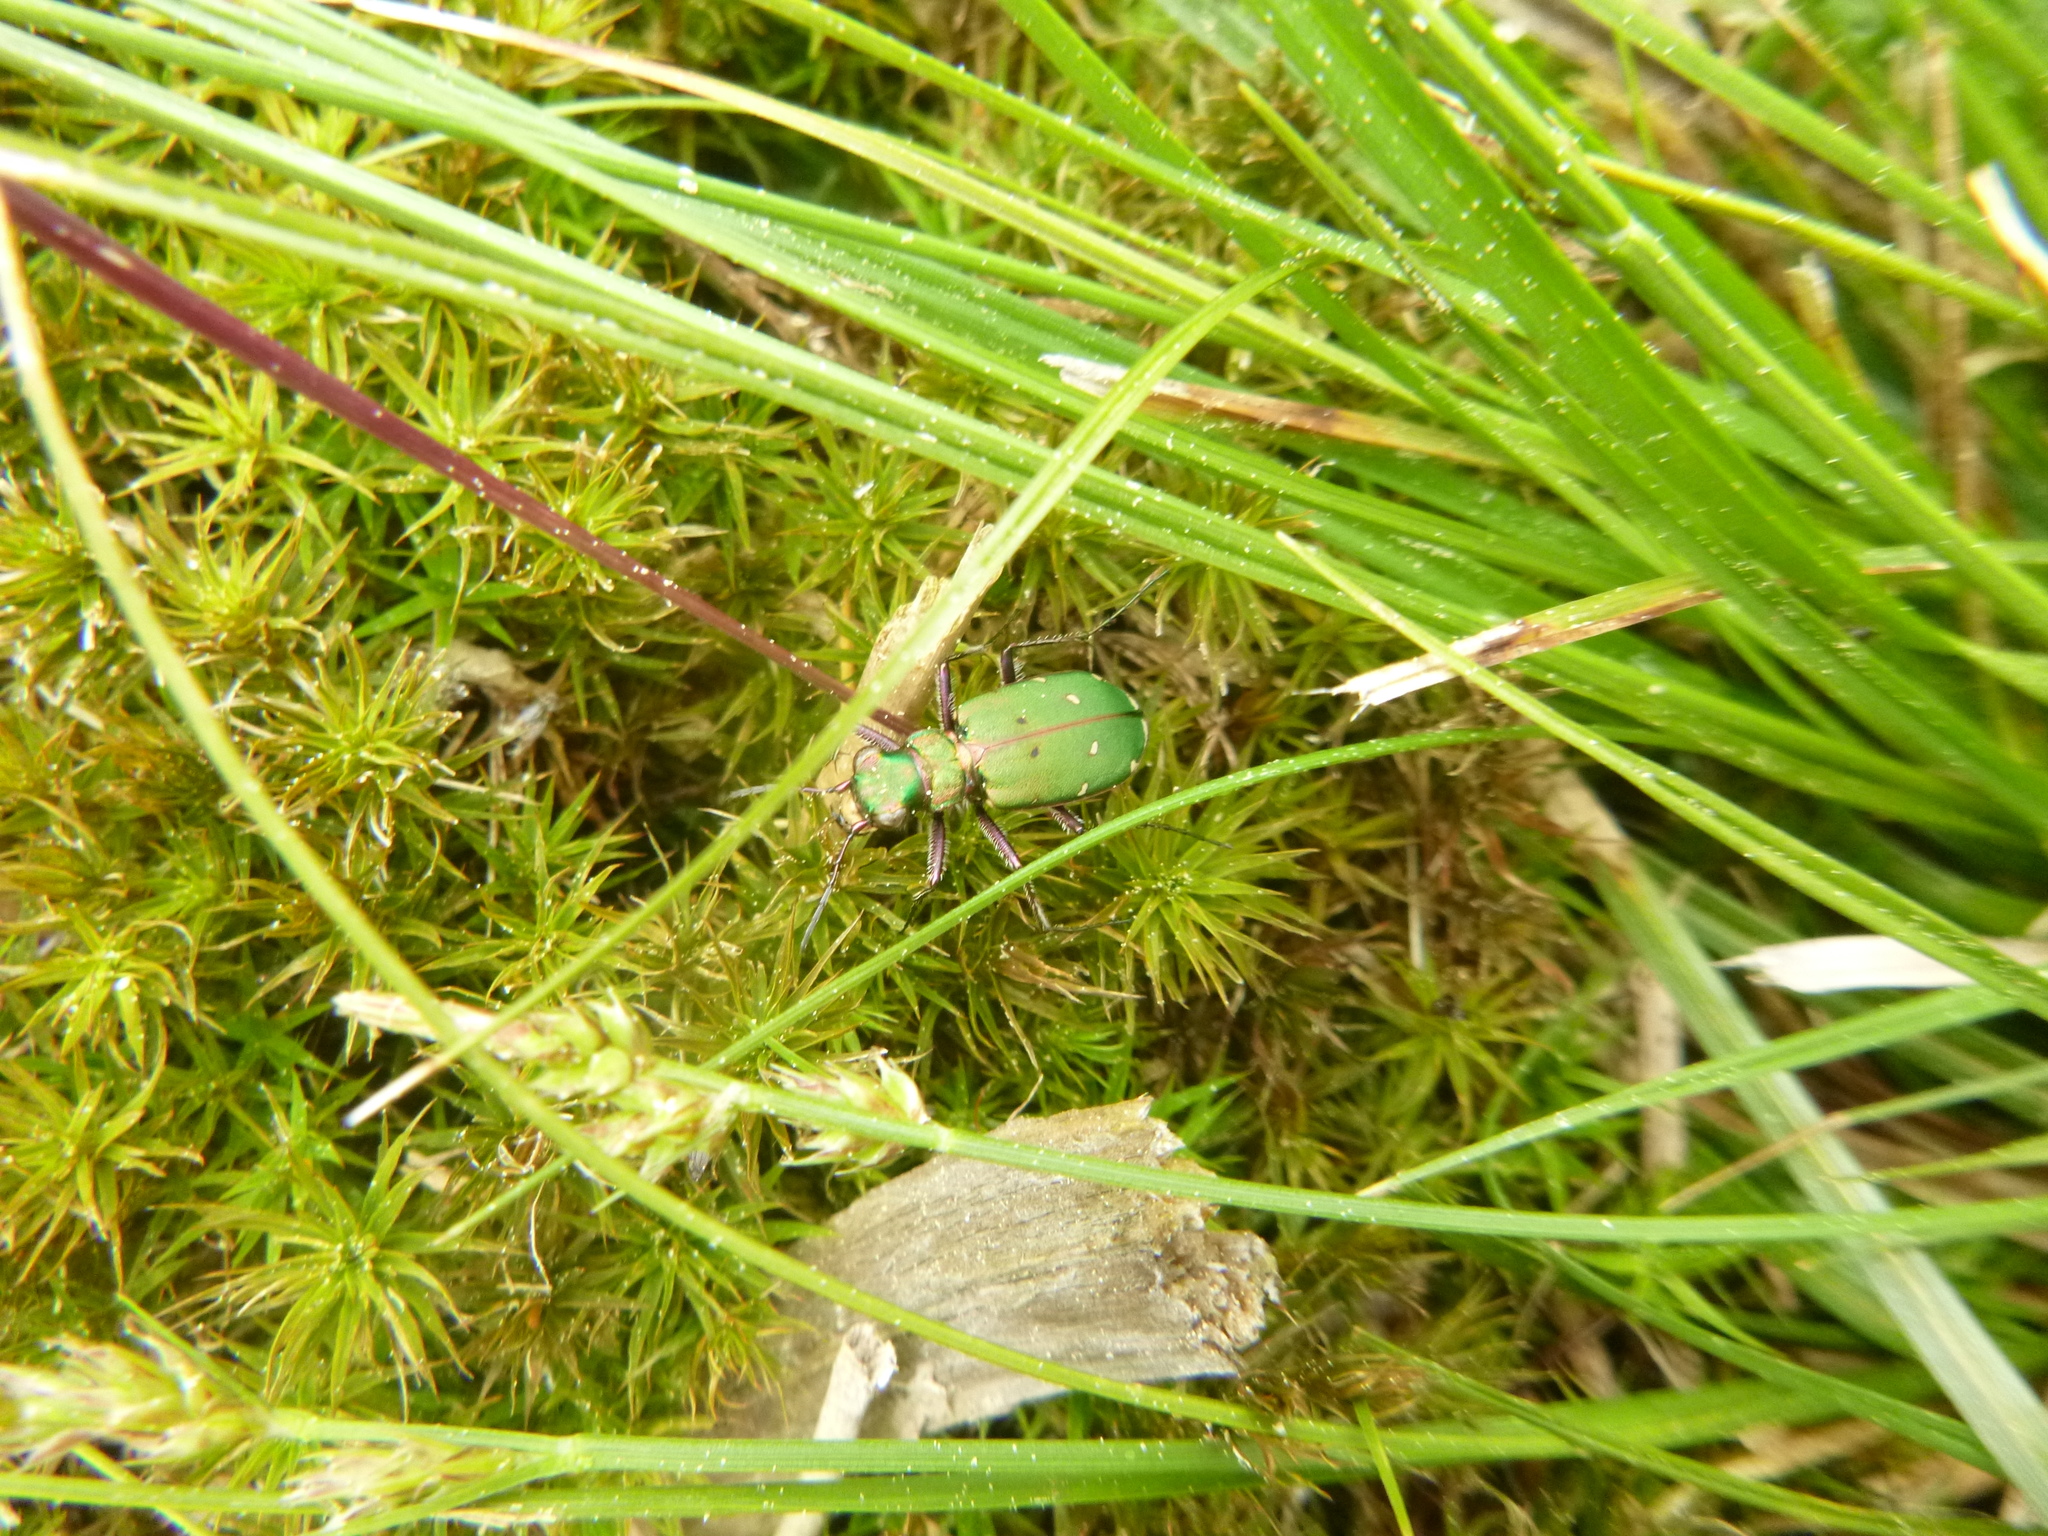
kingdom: Animalia
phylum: Arthropoda
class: Insecta
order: Coleoptera
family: Carabidae
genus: Cicindela
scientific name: Cicindela campestris
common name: Common tiger beetle
